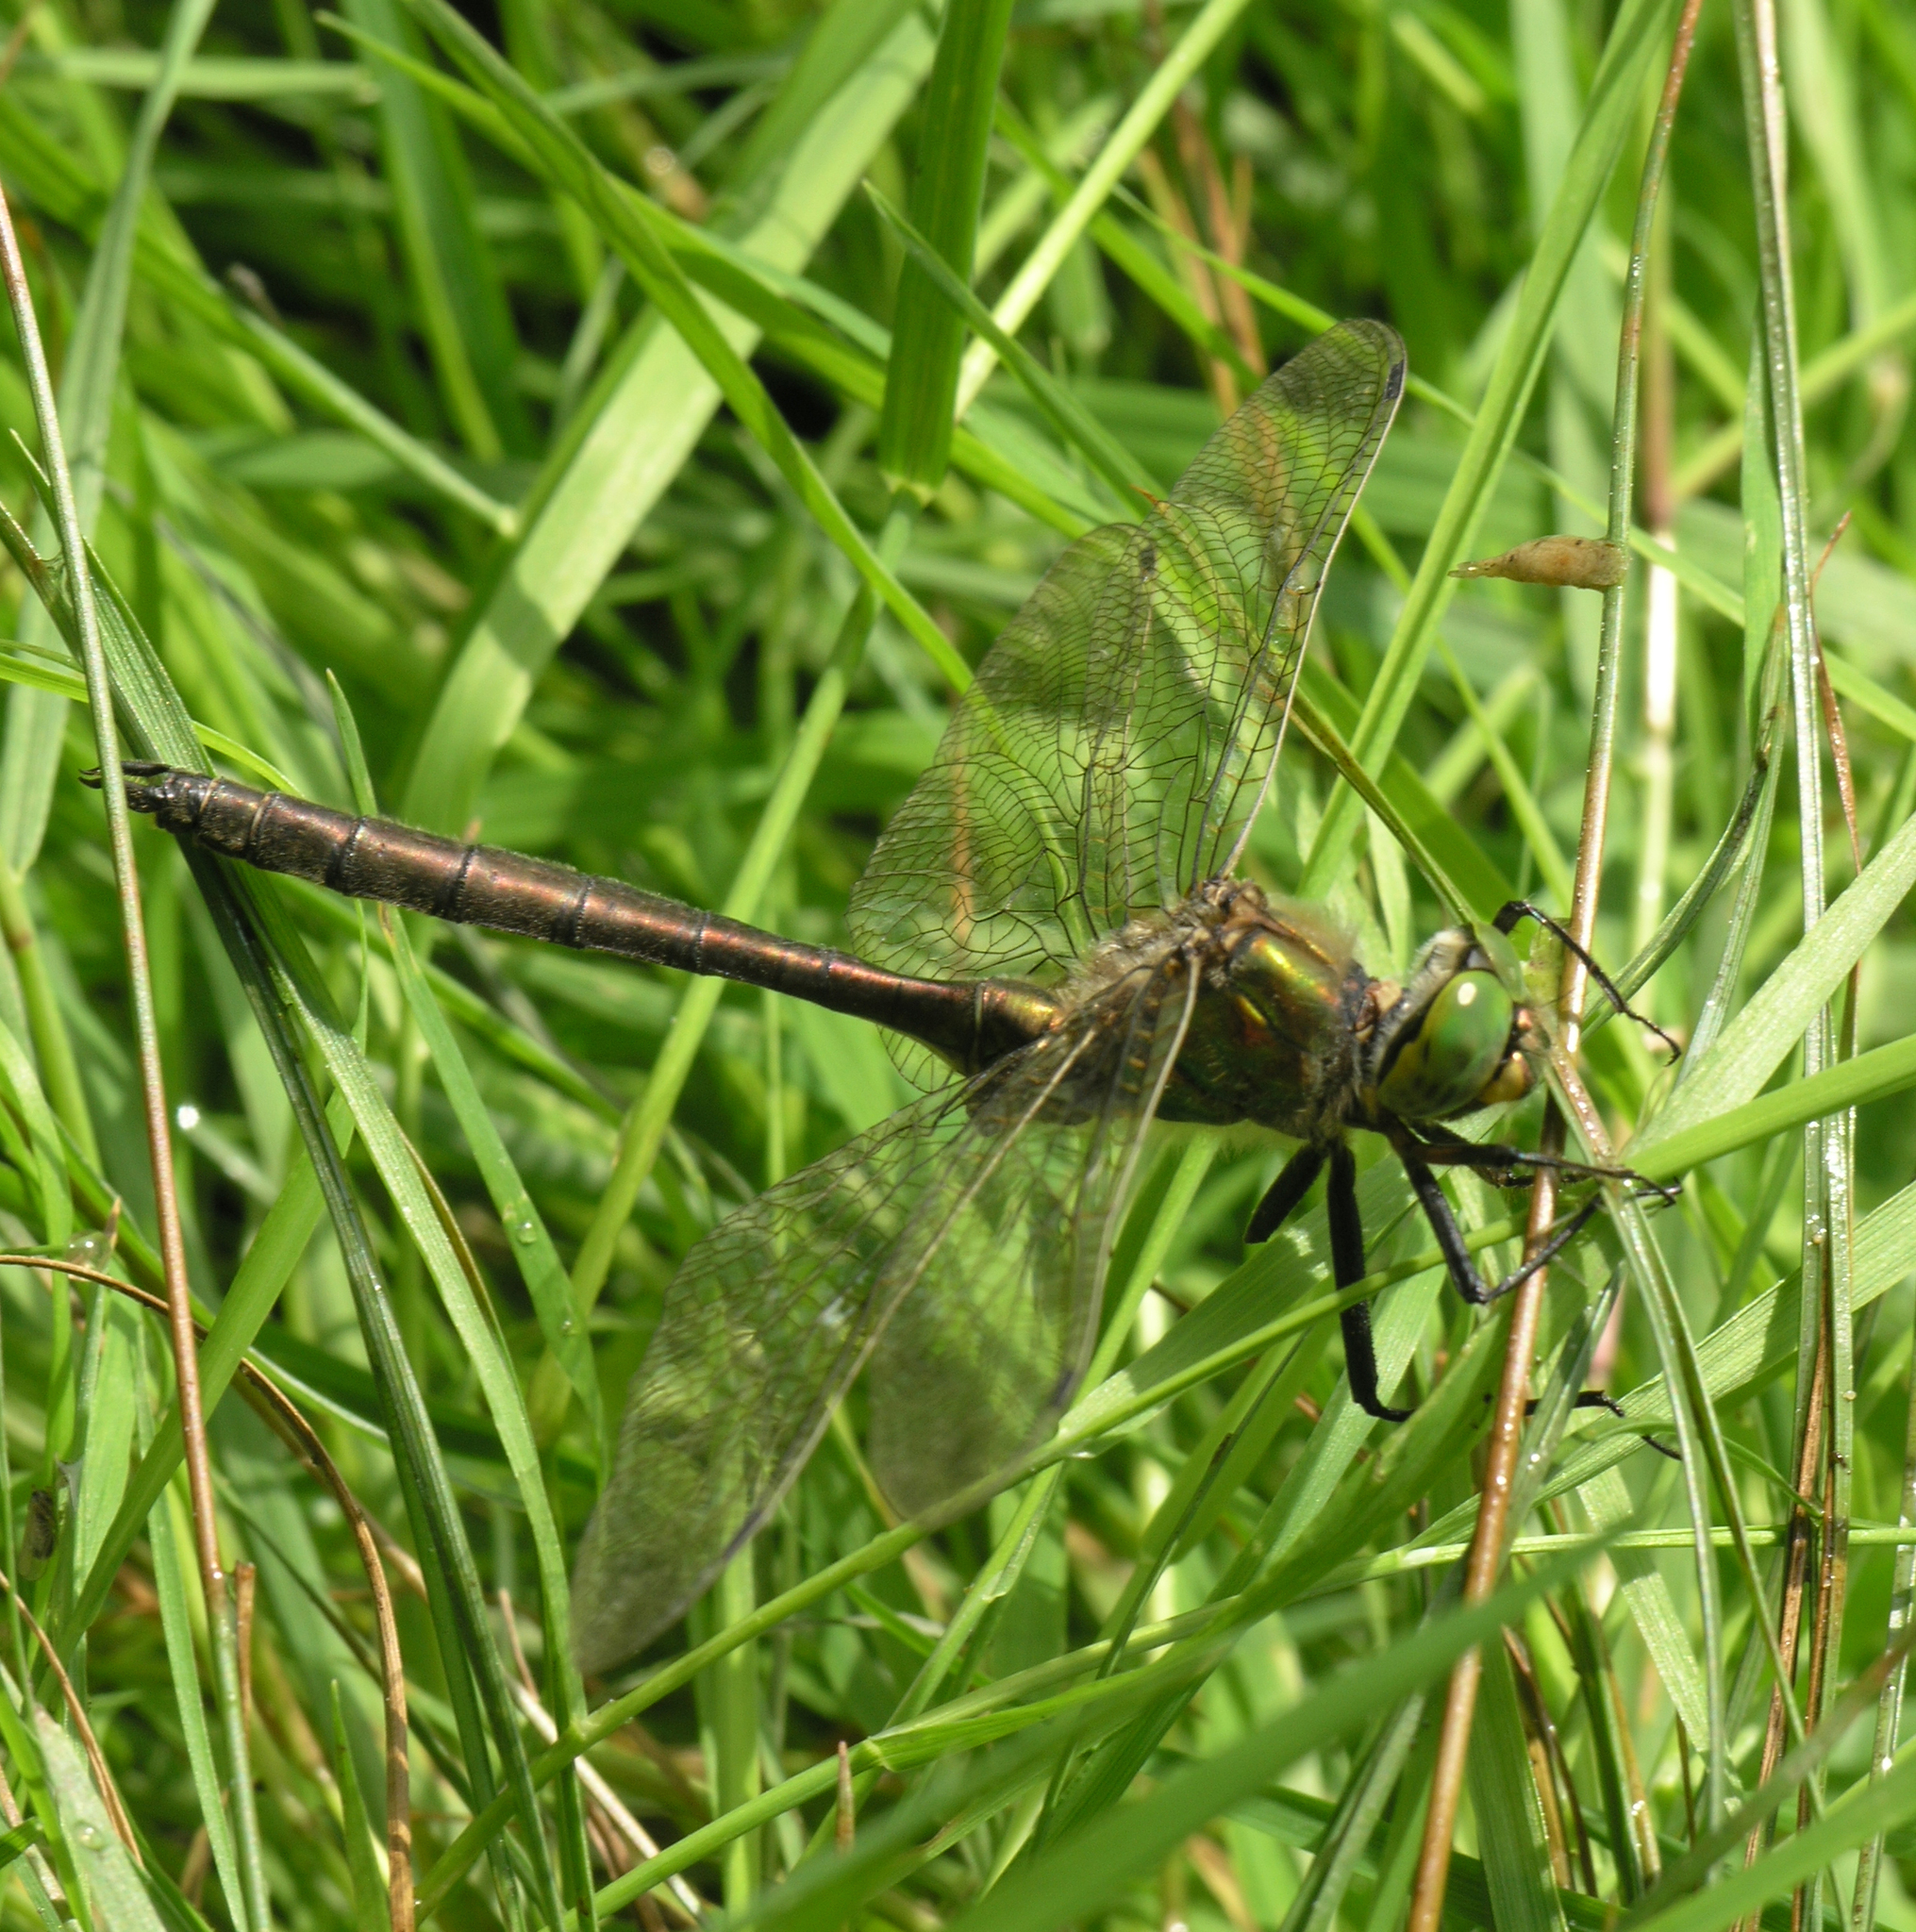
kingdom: Animalia
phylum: Arthropoda
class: Insecta
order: Odonata
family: Corduliidae
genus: Somatochlora
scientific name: Somatochlora metallica
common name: Brilliant emerald
